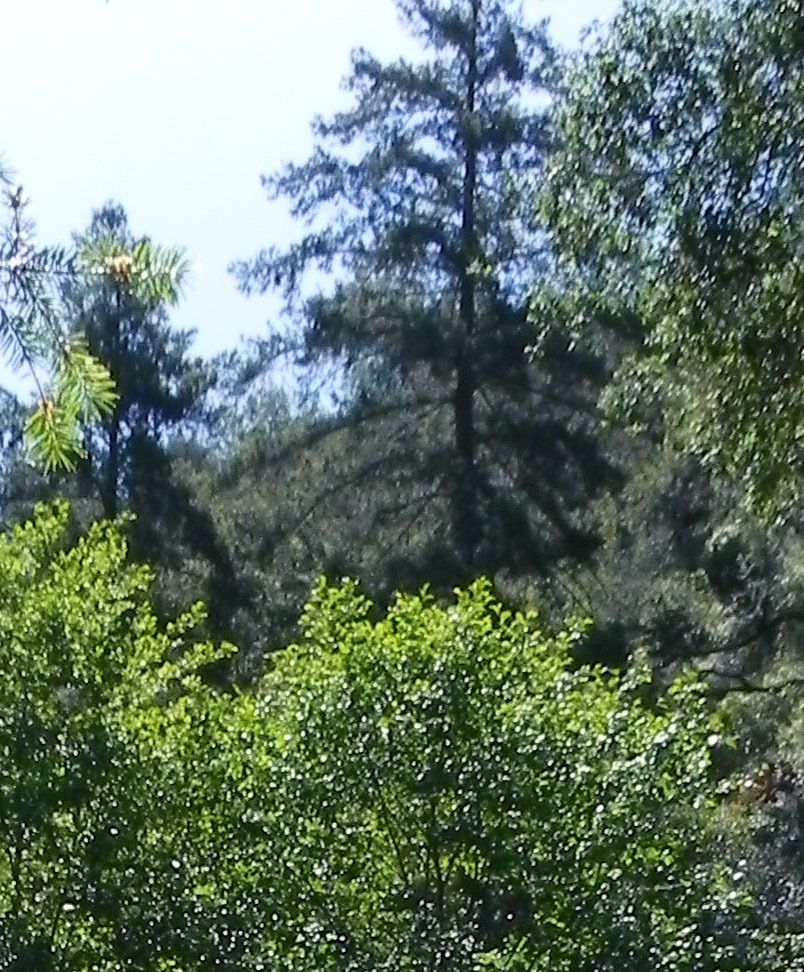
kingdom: Plantae
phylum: Tracheophyta
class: Pinopsida
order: Pinales
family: Pinaceae
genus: Pseudotsuga
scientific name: Pseudotsuga macrocarpa
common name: Big-cone douglas-fir
